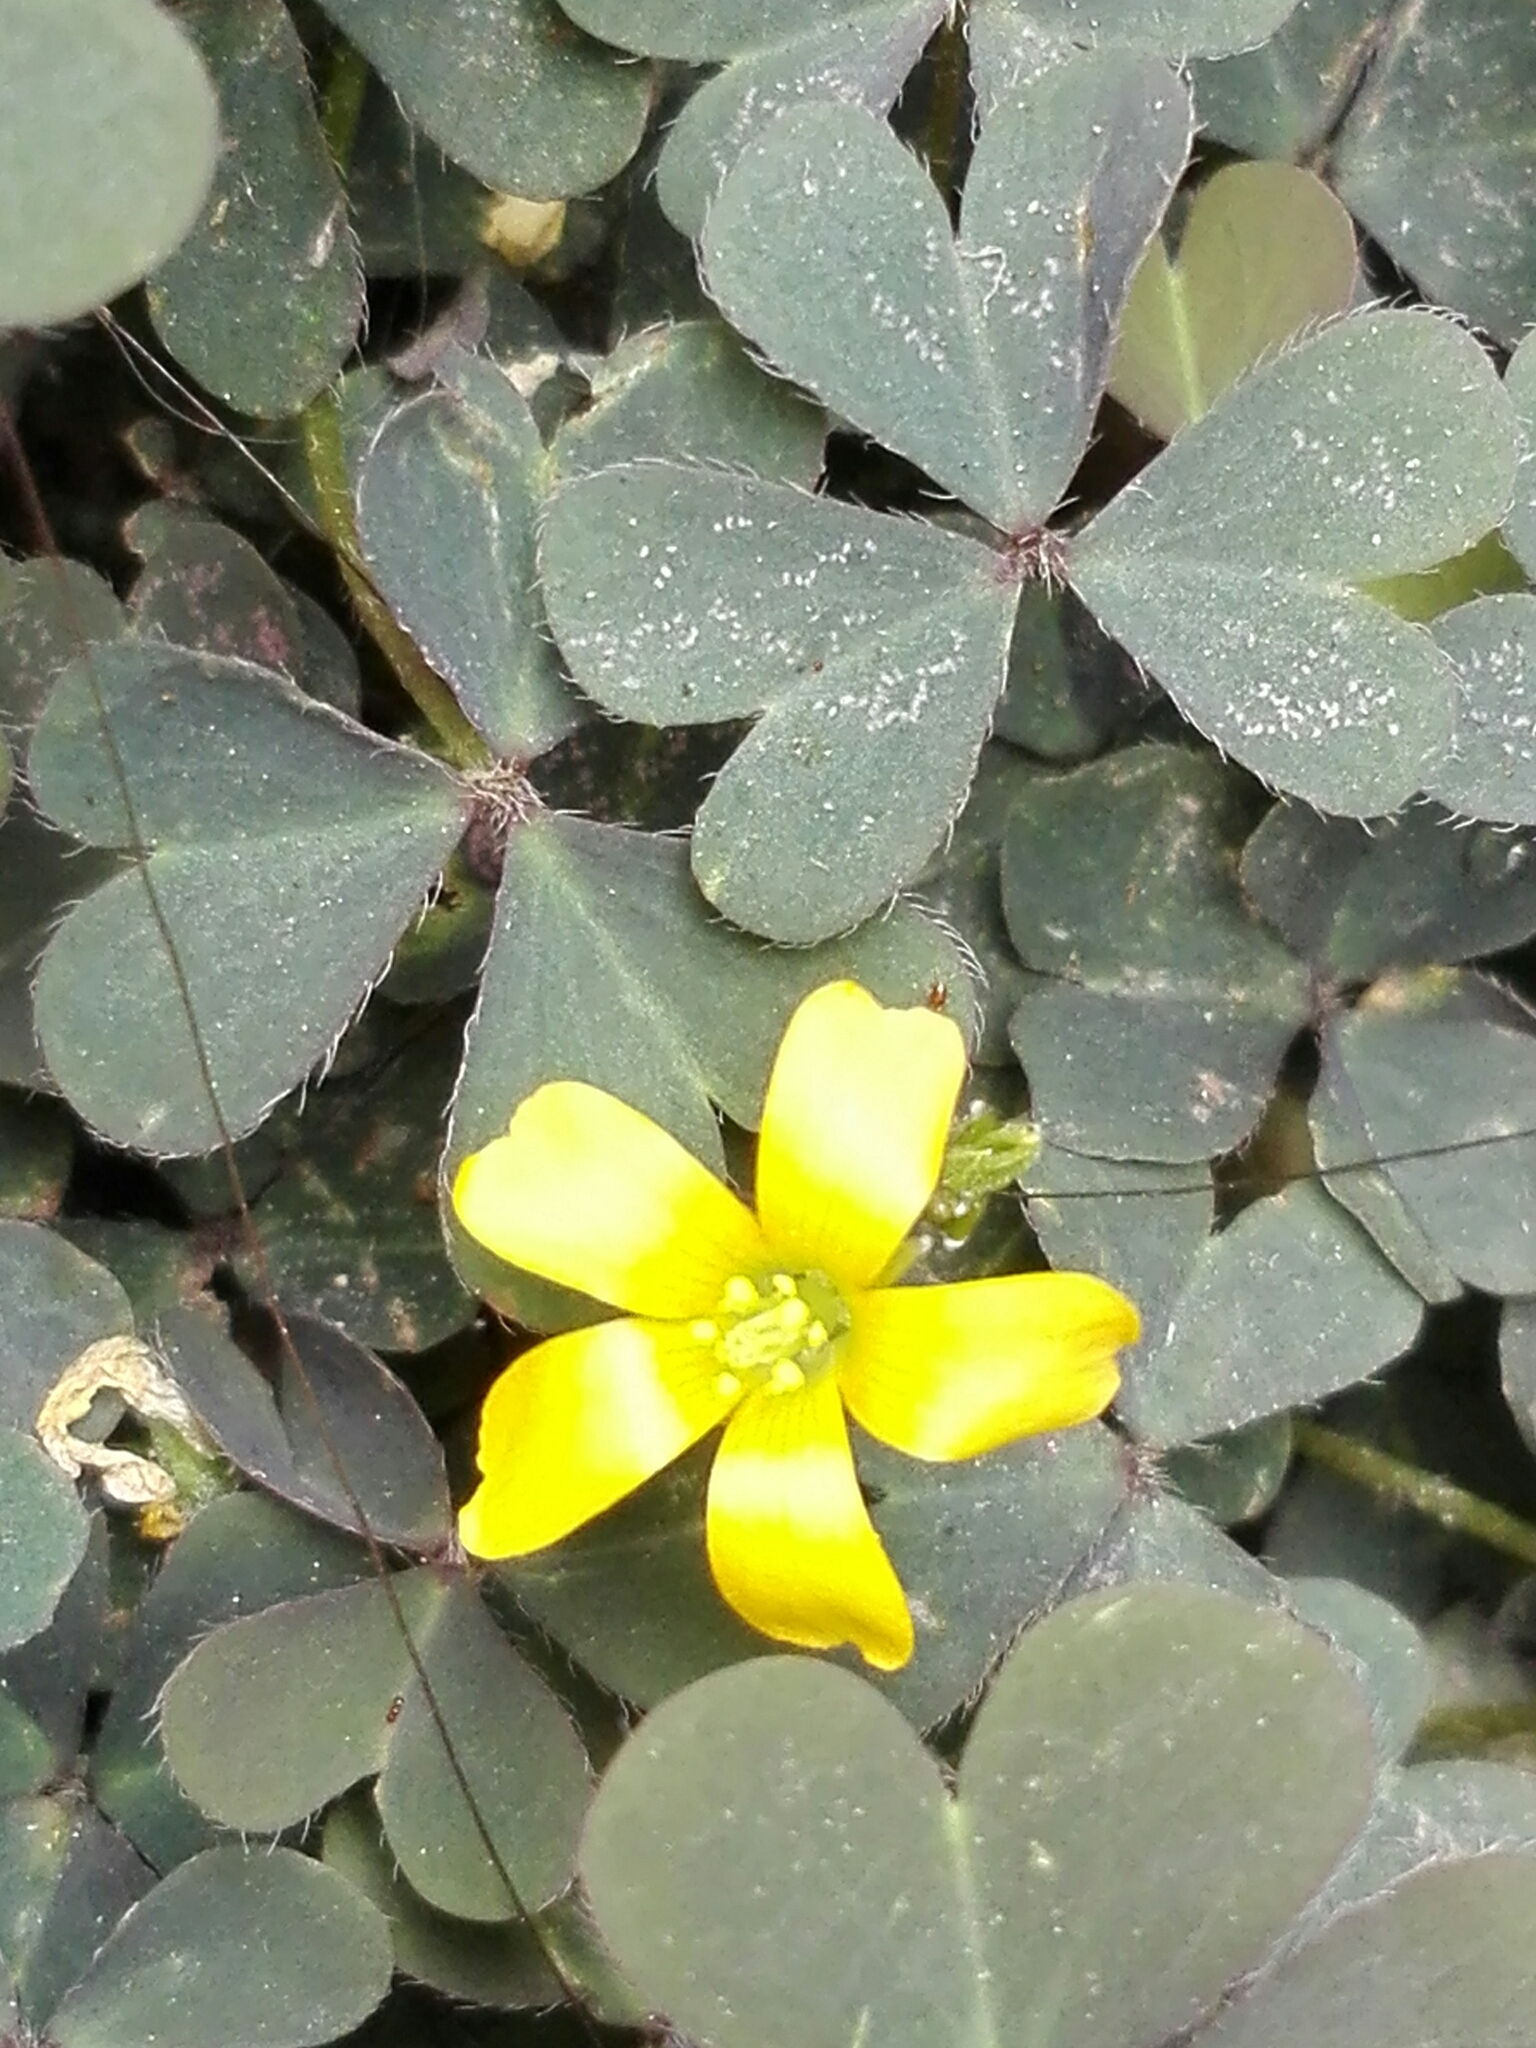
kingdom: Plantae
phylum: Tracheophyta
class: Magnoliopsida
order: Oxalidales
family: Oxalidaceae
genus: Oxalis
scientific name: Oxalis corniculata
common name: Procumbent yellow-sorrel
